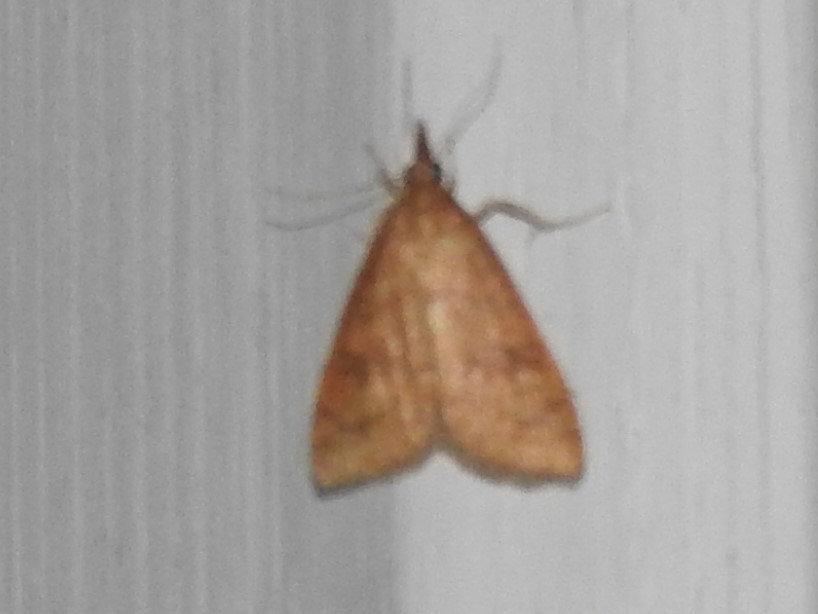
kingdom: Animalia
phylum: Arthropoda
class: Insecta
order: Lepidoptera
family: Crambidae
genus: Udea
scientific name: Udea rubigalis
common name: Celery leaftier moth
